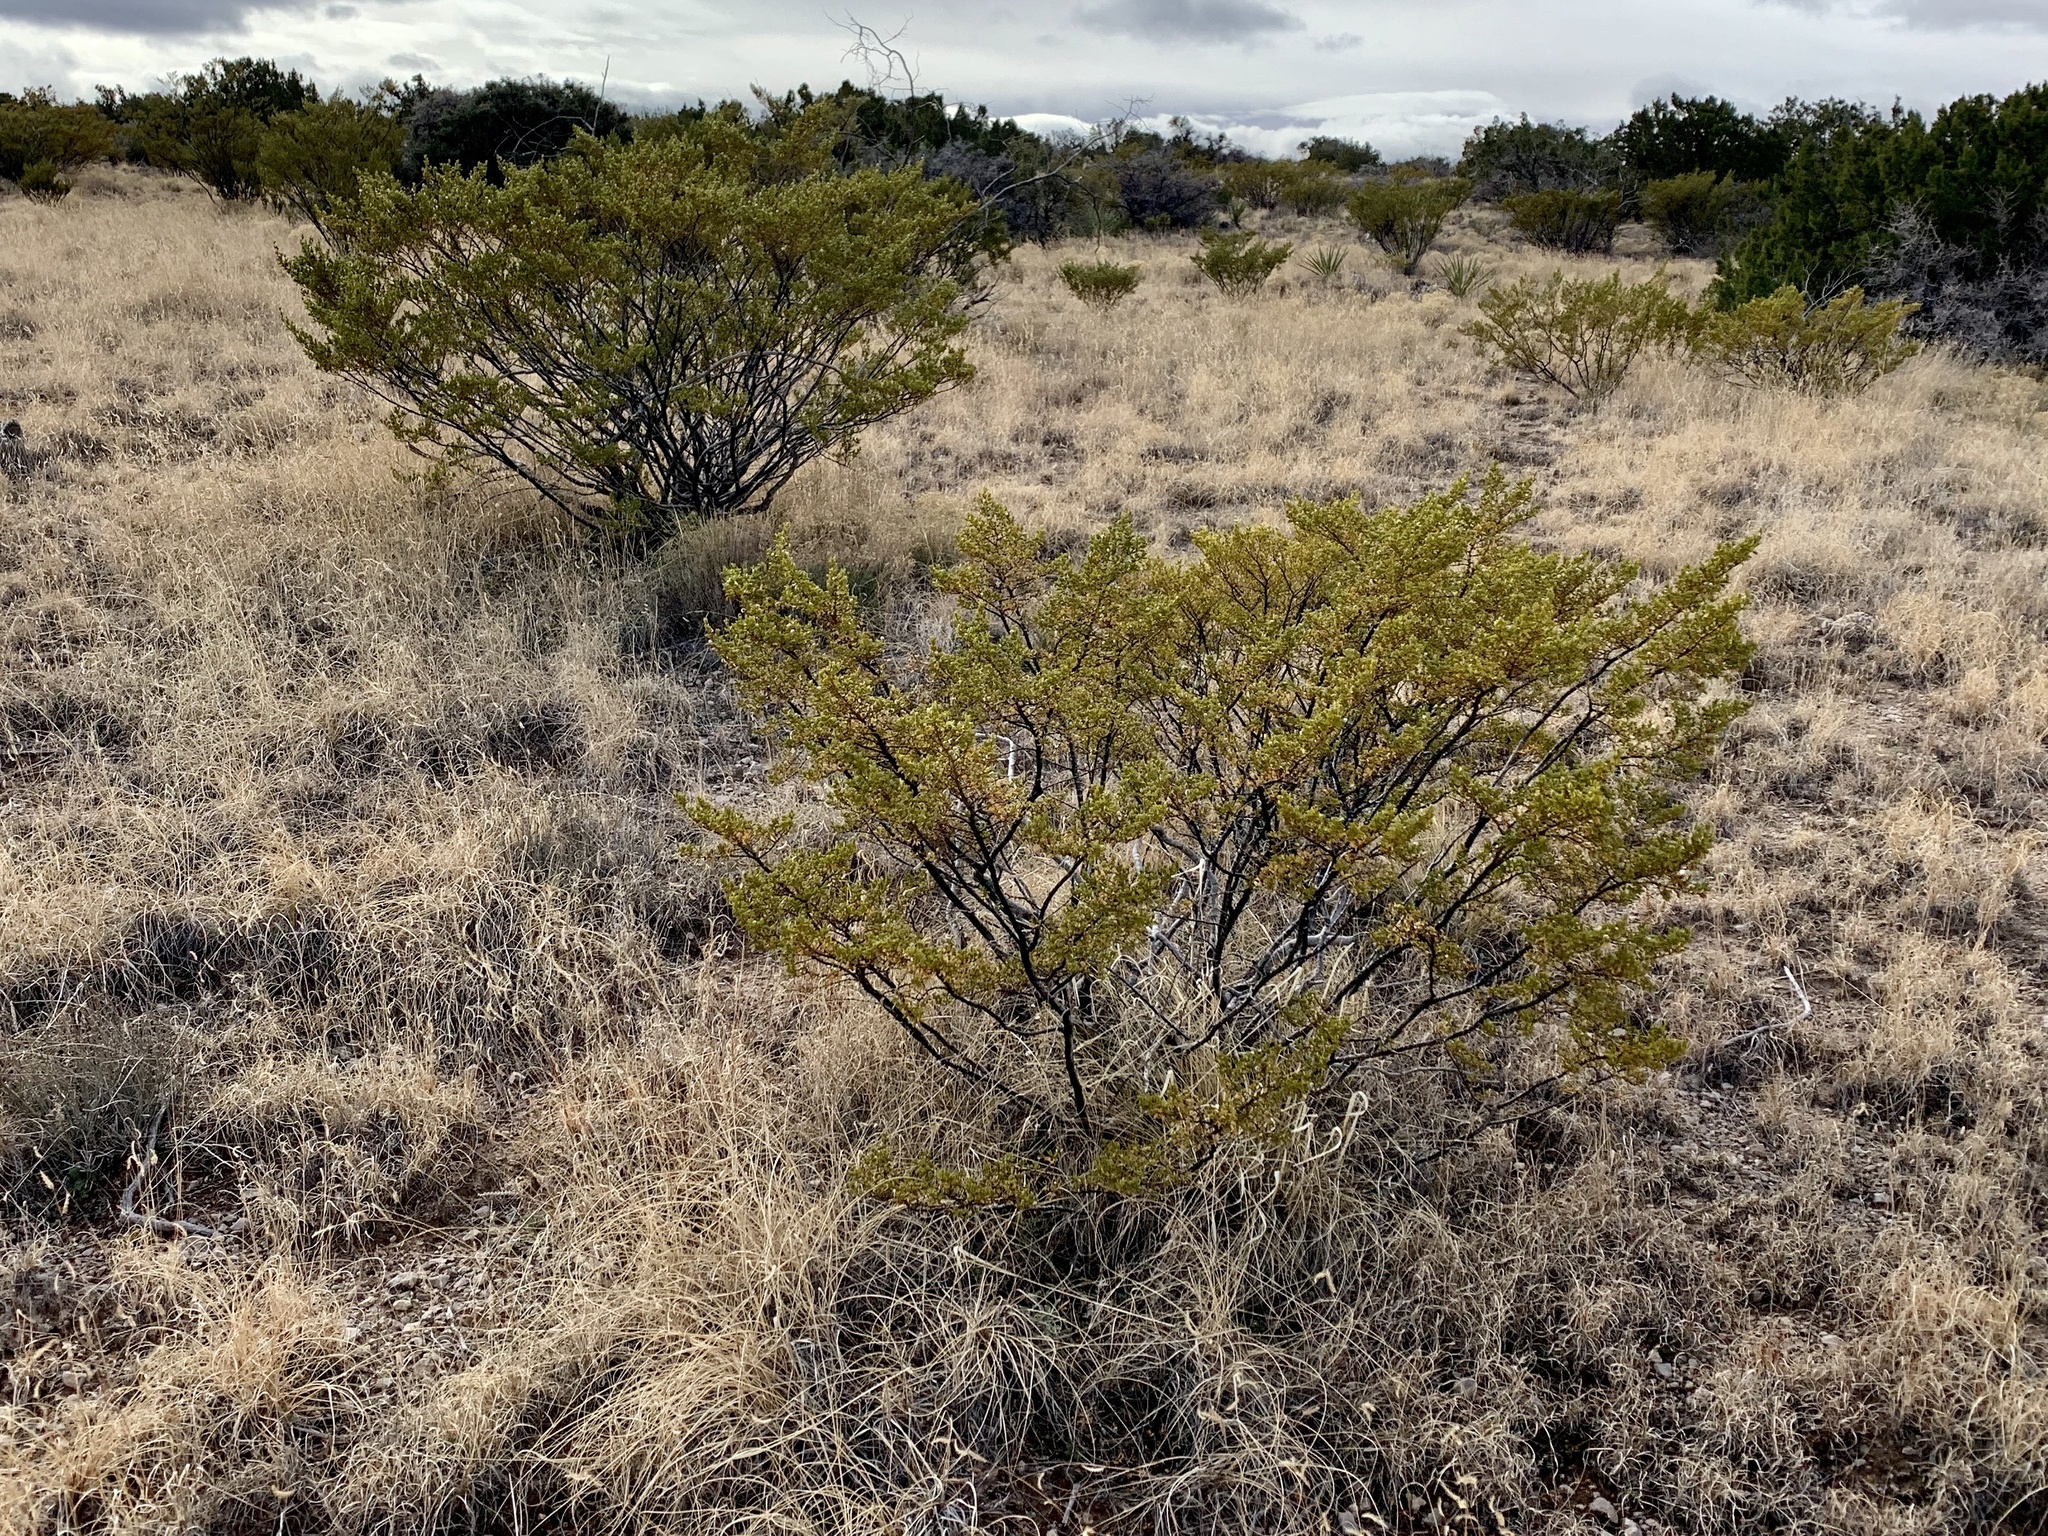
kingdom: Plantae
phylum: Tracheophyta
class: Magnoliopsida
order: Zygophyllales
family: Zygophyllaceae
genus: Larrea
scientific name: Larrea tridentata
